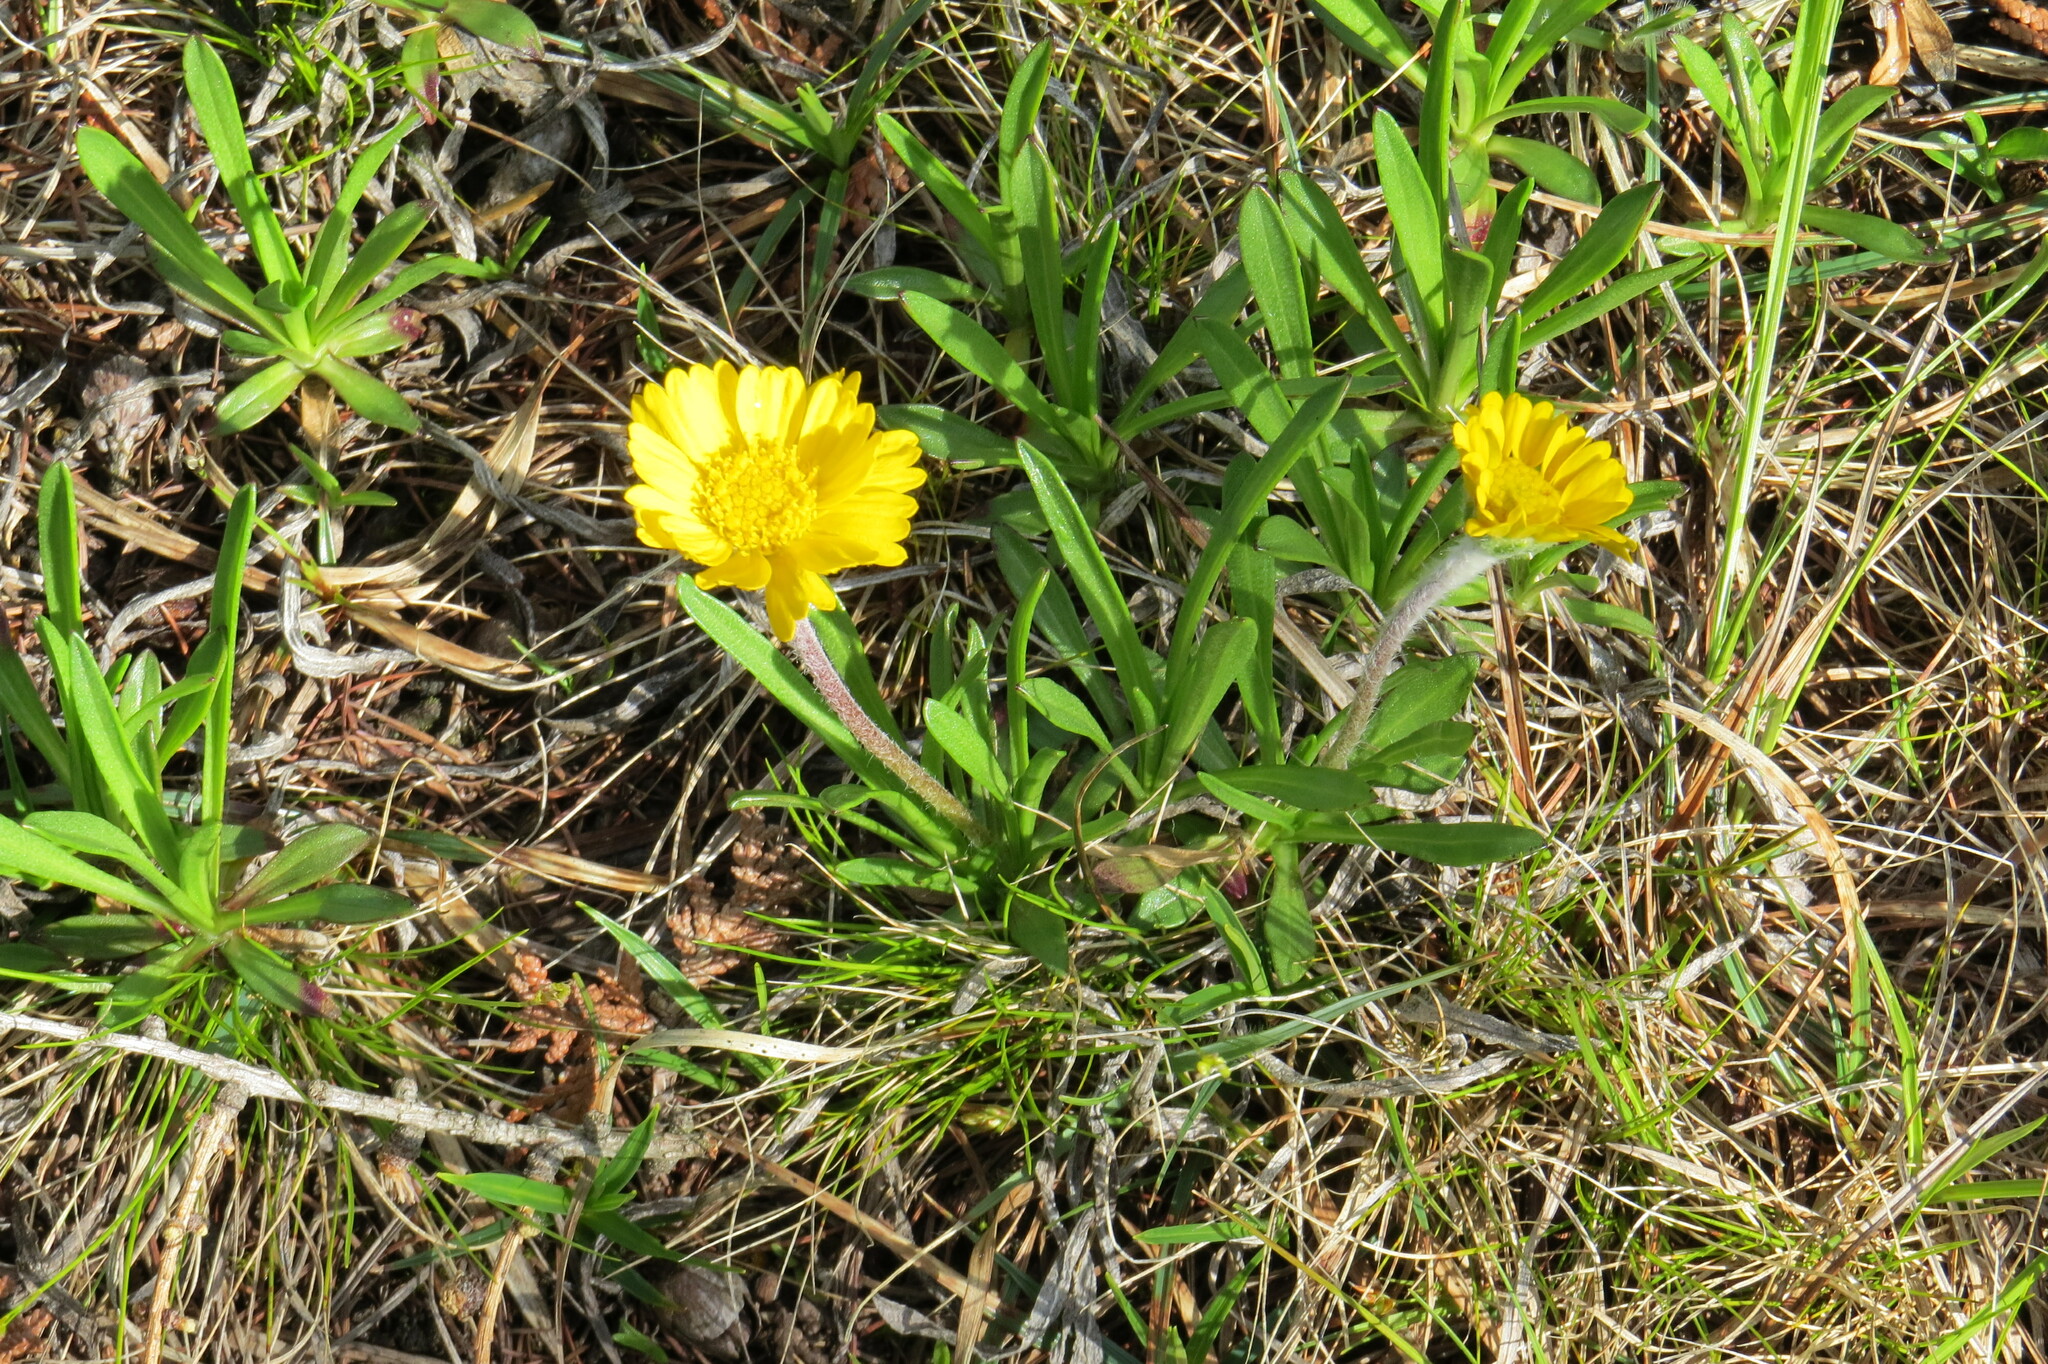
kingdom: Plantae
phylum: Tracheophyta
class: Magnoliopsida
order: Asterales
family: Asteraceae
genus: Tetraneuris
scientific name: Tetraneuris herbacea
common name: Lakeside daisy
